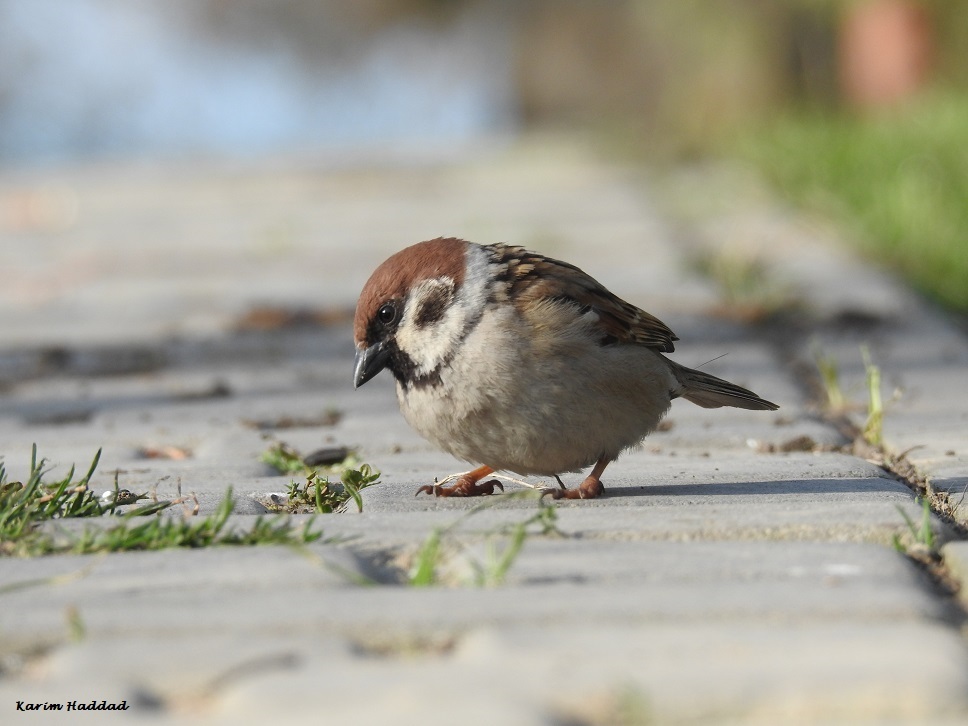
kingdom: Animalia
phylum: Chordata
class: Aves
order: Passeriformes
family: Passeridae
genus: Passer
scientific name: Passer montanus
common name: Eurasian tree sparrow
